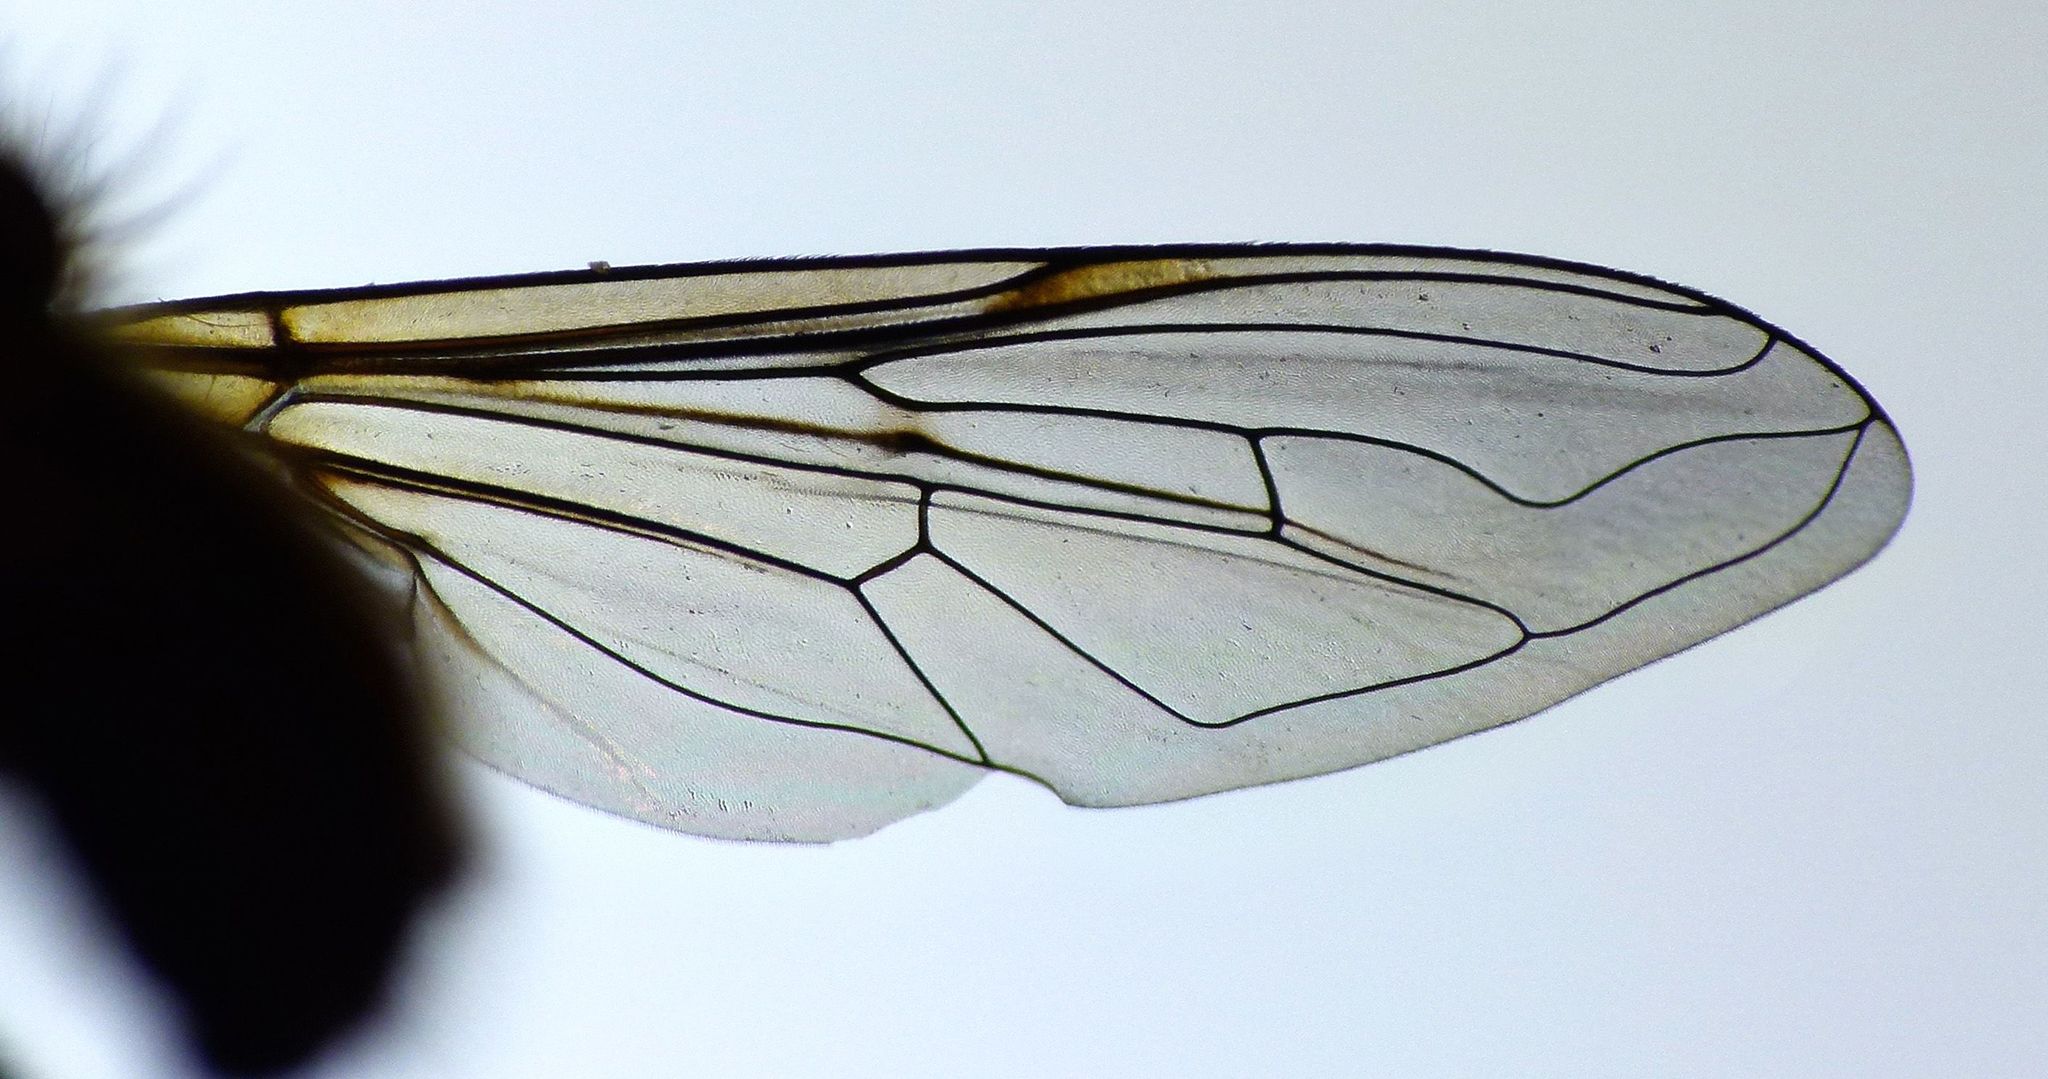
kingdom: Animalia
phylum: Arthropoda
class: Insecta
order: Diptera
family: Syrphidae
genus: Helophilus
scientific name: Helophilus cargilli
